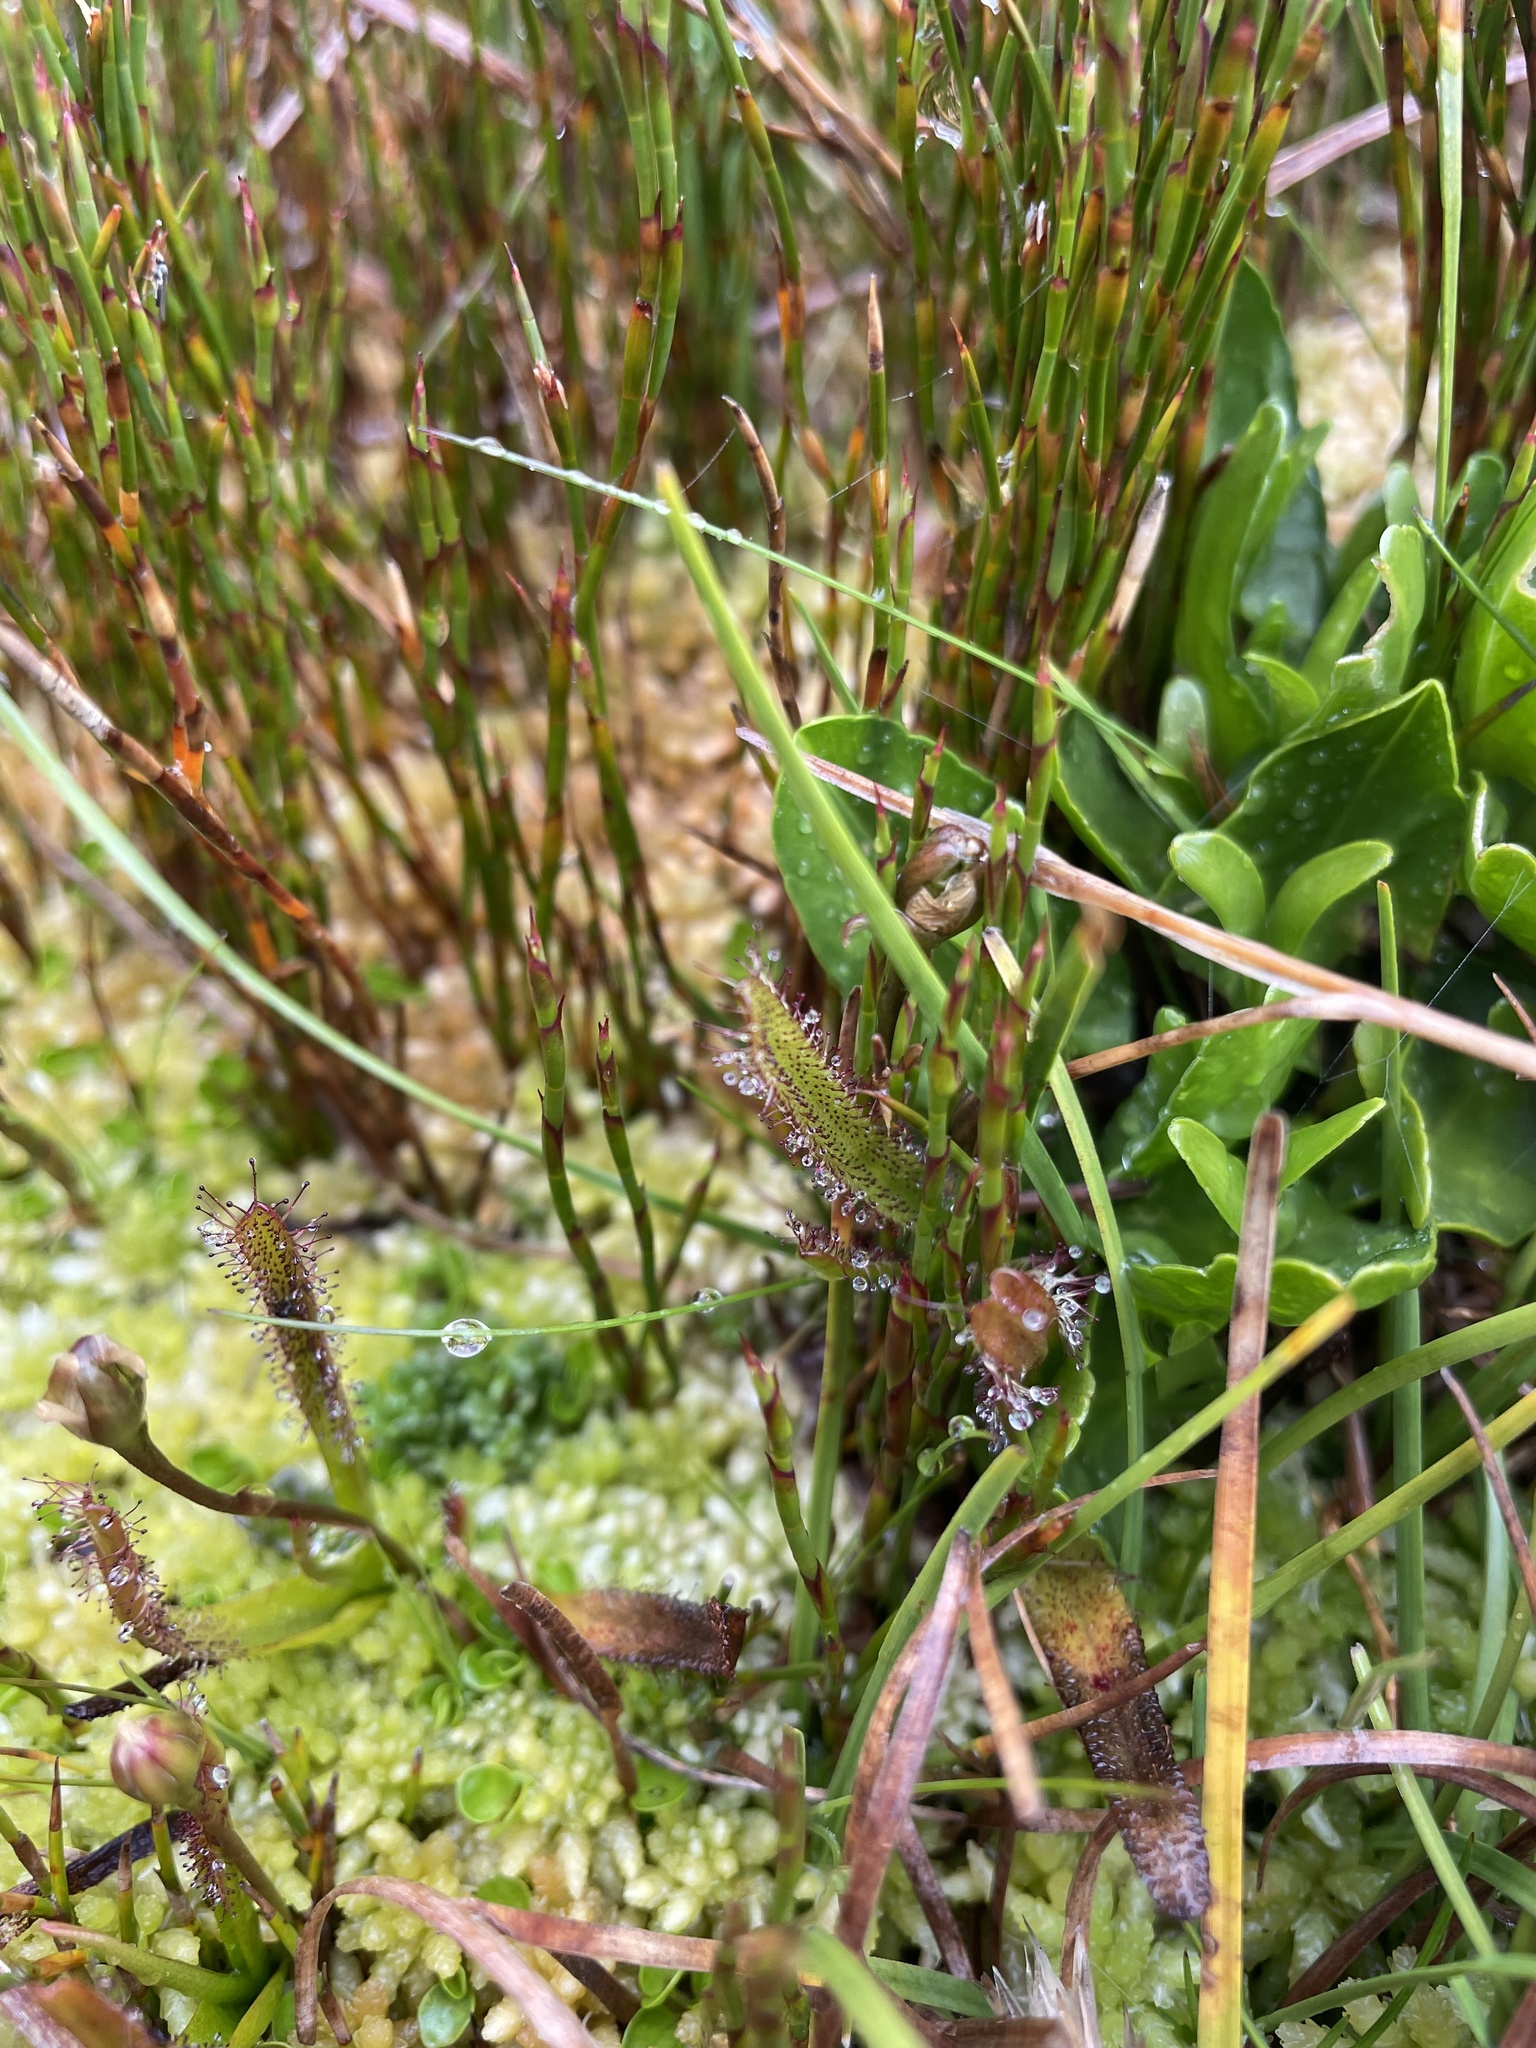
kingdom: Plantae
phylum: Tracheophyta
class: Magnoliopsida
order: Caryophyllales
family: Droseraceae
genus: Drosera
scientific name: Drosera arcturi
